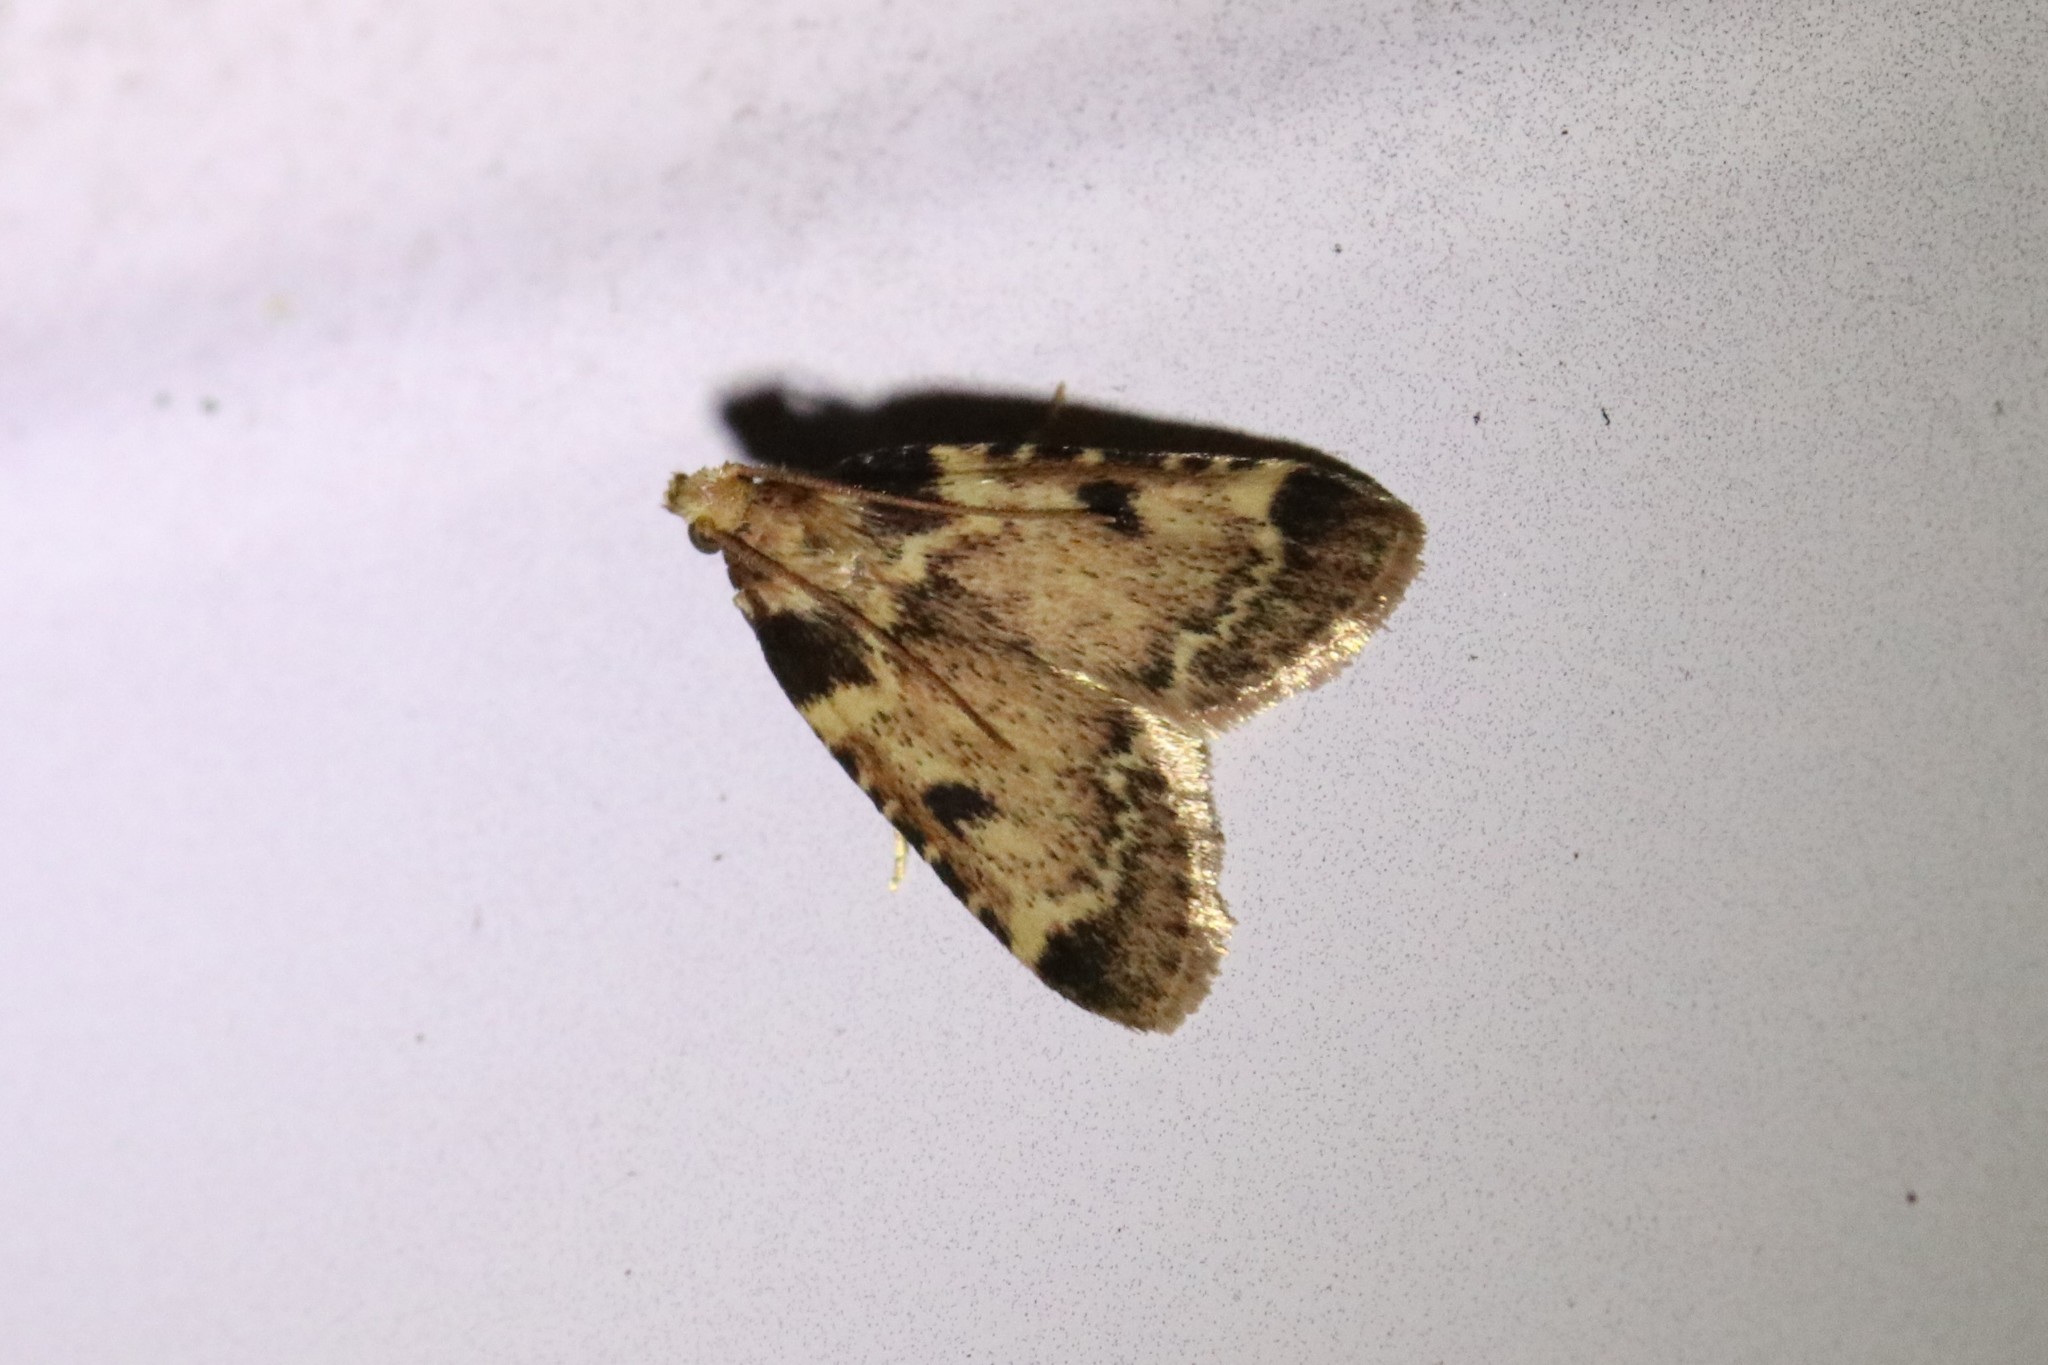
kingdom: Animalia
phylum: Arthropoda
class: Insecta
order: Lepidoptera
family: Pyralidae
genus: Aglossa
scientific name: Aglossa costiferalis
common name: Calico pyralid moth
